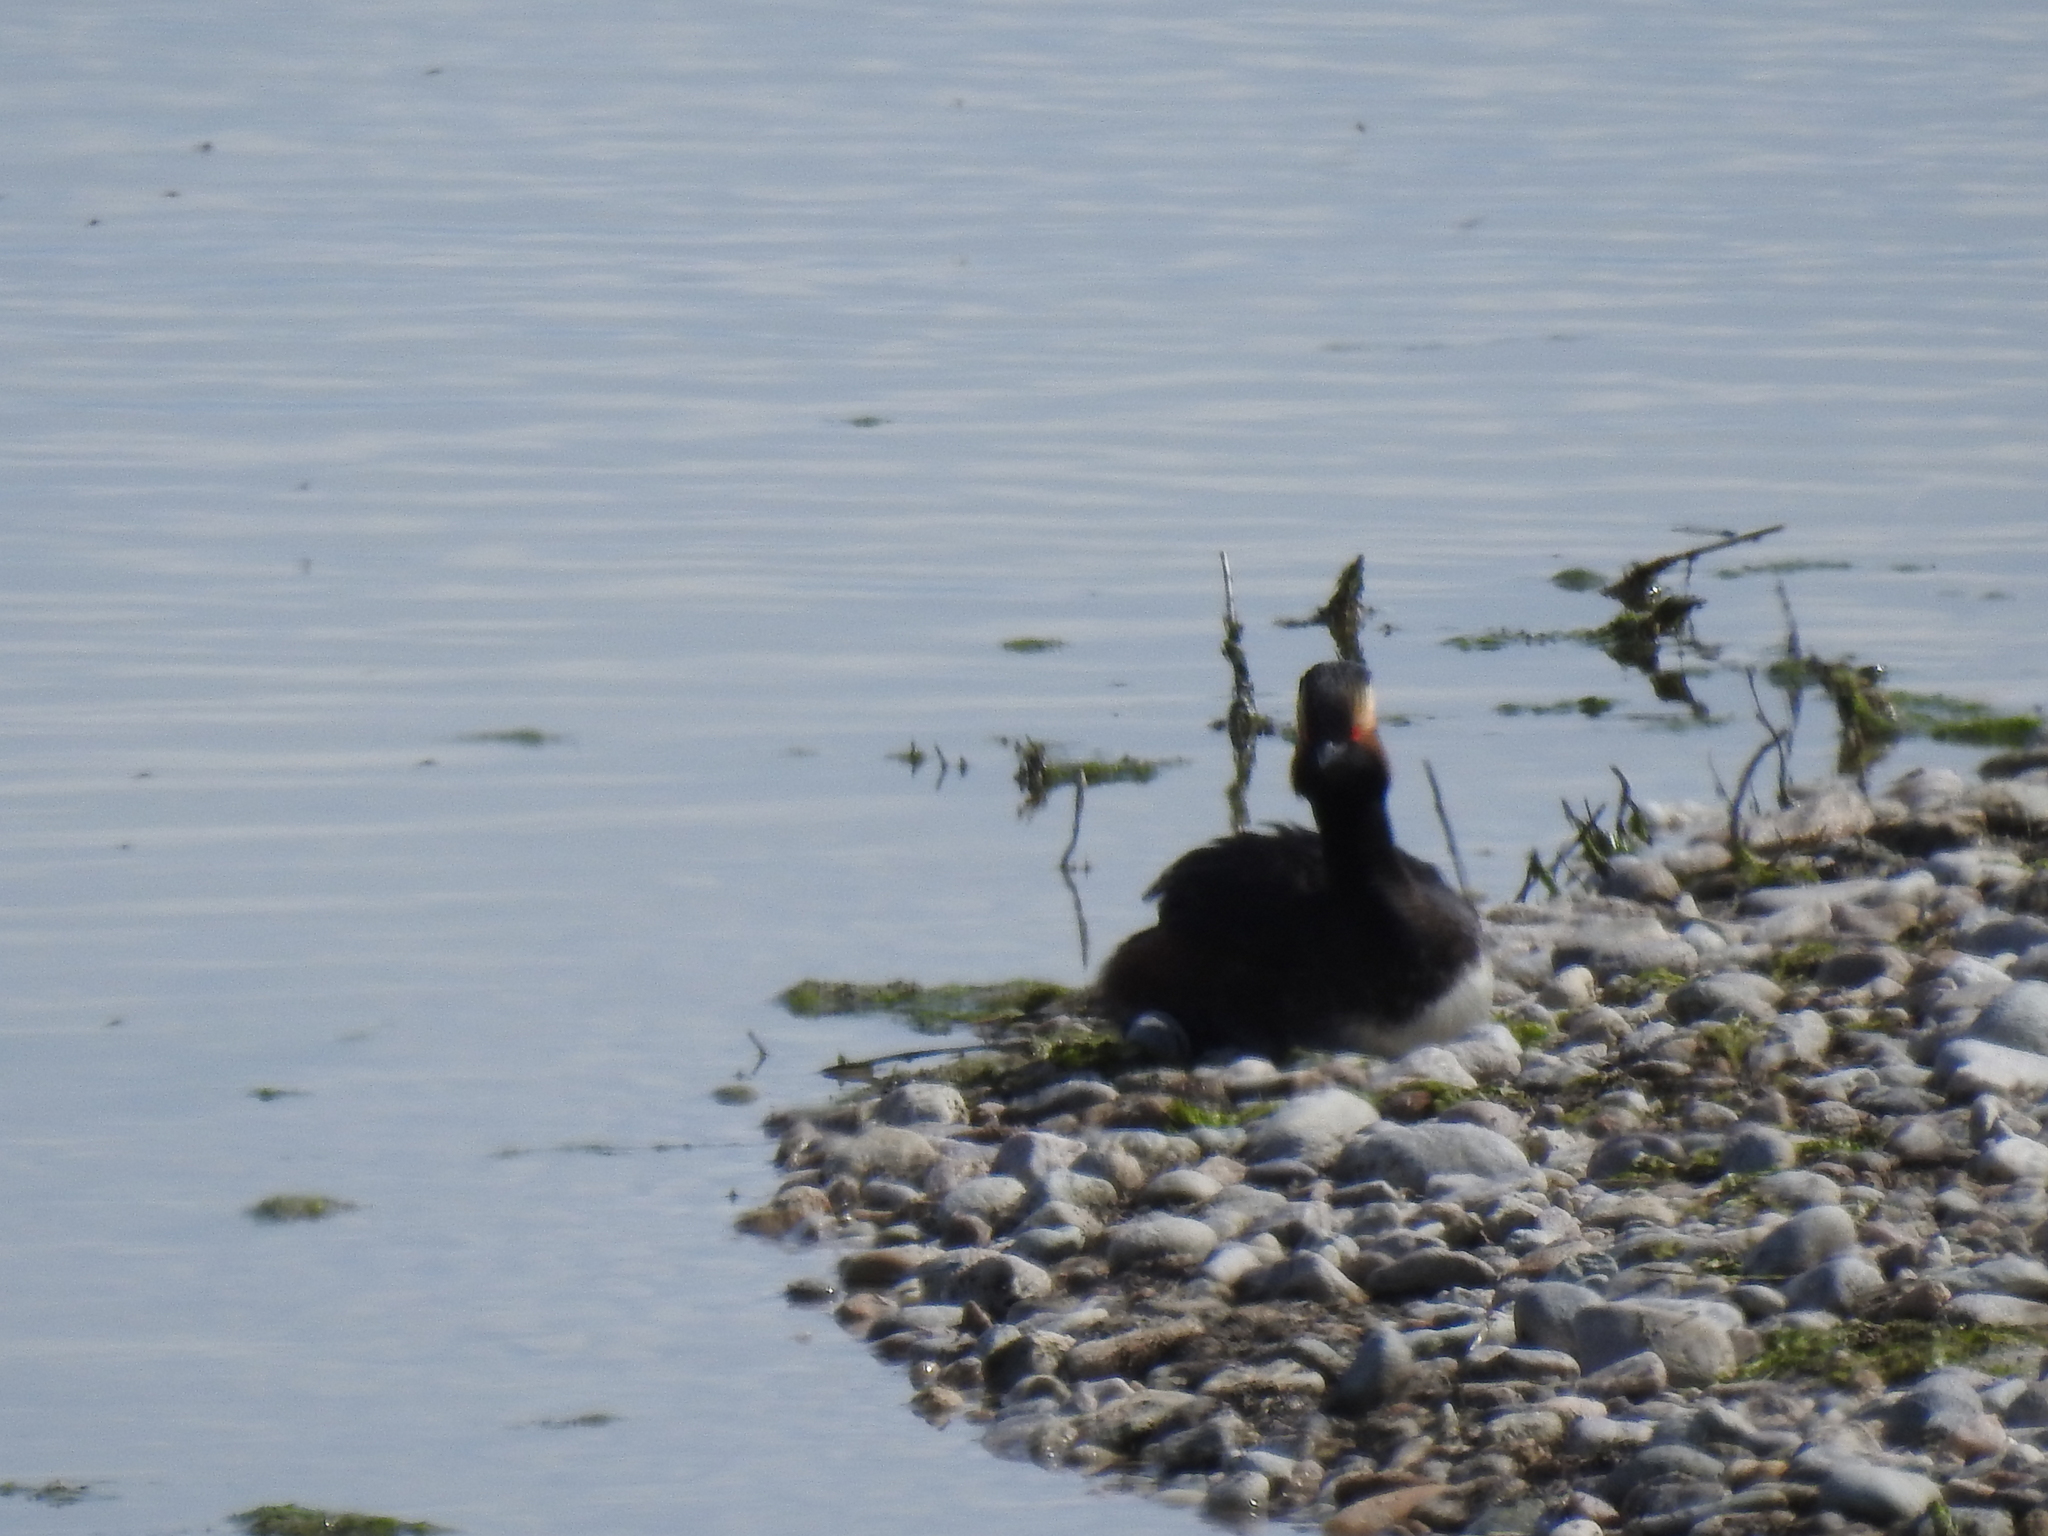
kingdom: Animalia
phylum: Chordata
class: Aves
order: Podicipediformes
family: Podicipedidae
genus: Podiceps
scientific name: Podiceps nigricollis
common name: Black-necked grebe
